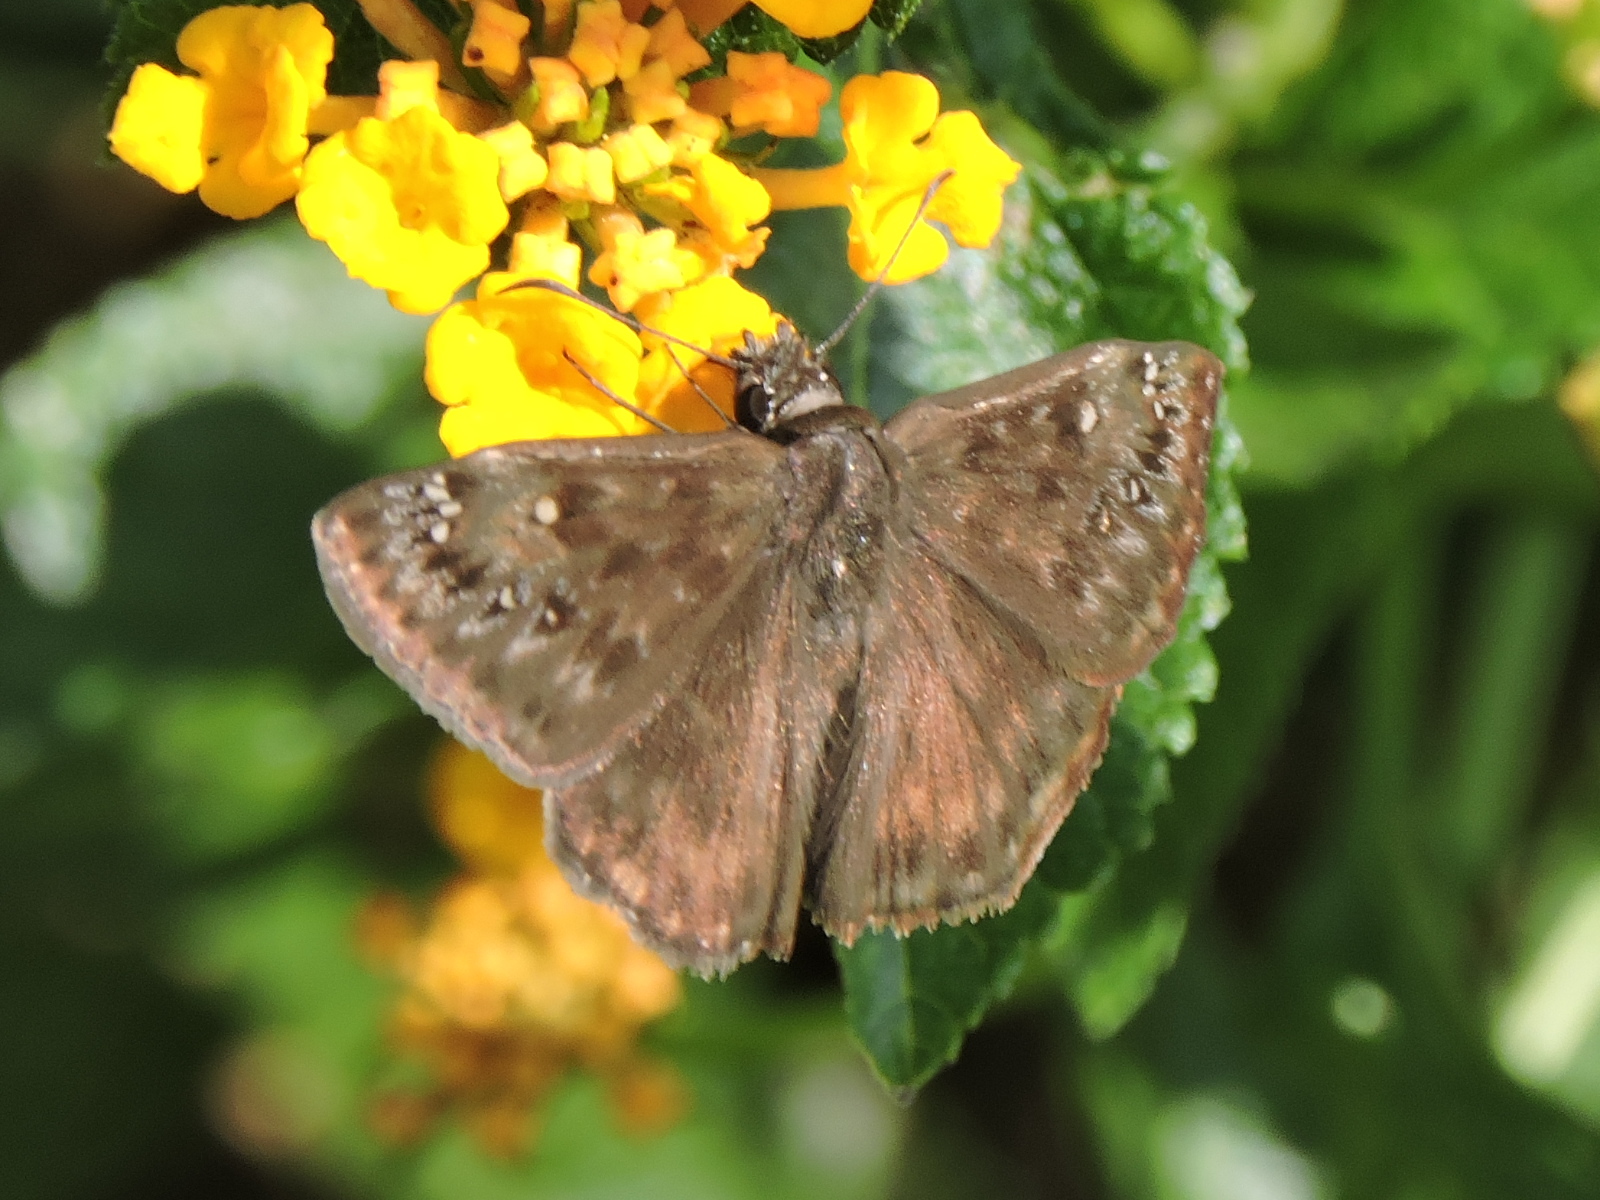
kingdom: Animalia
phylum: Arthropoda
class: Insecta
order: Lepidoptera
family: Hesperiidae
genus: Erynnis
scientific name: Erynnis horatius
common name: Horace's duskywing
